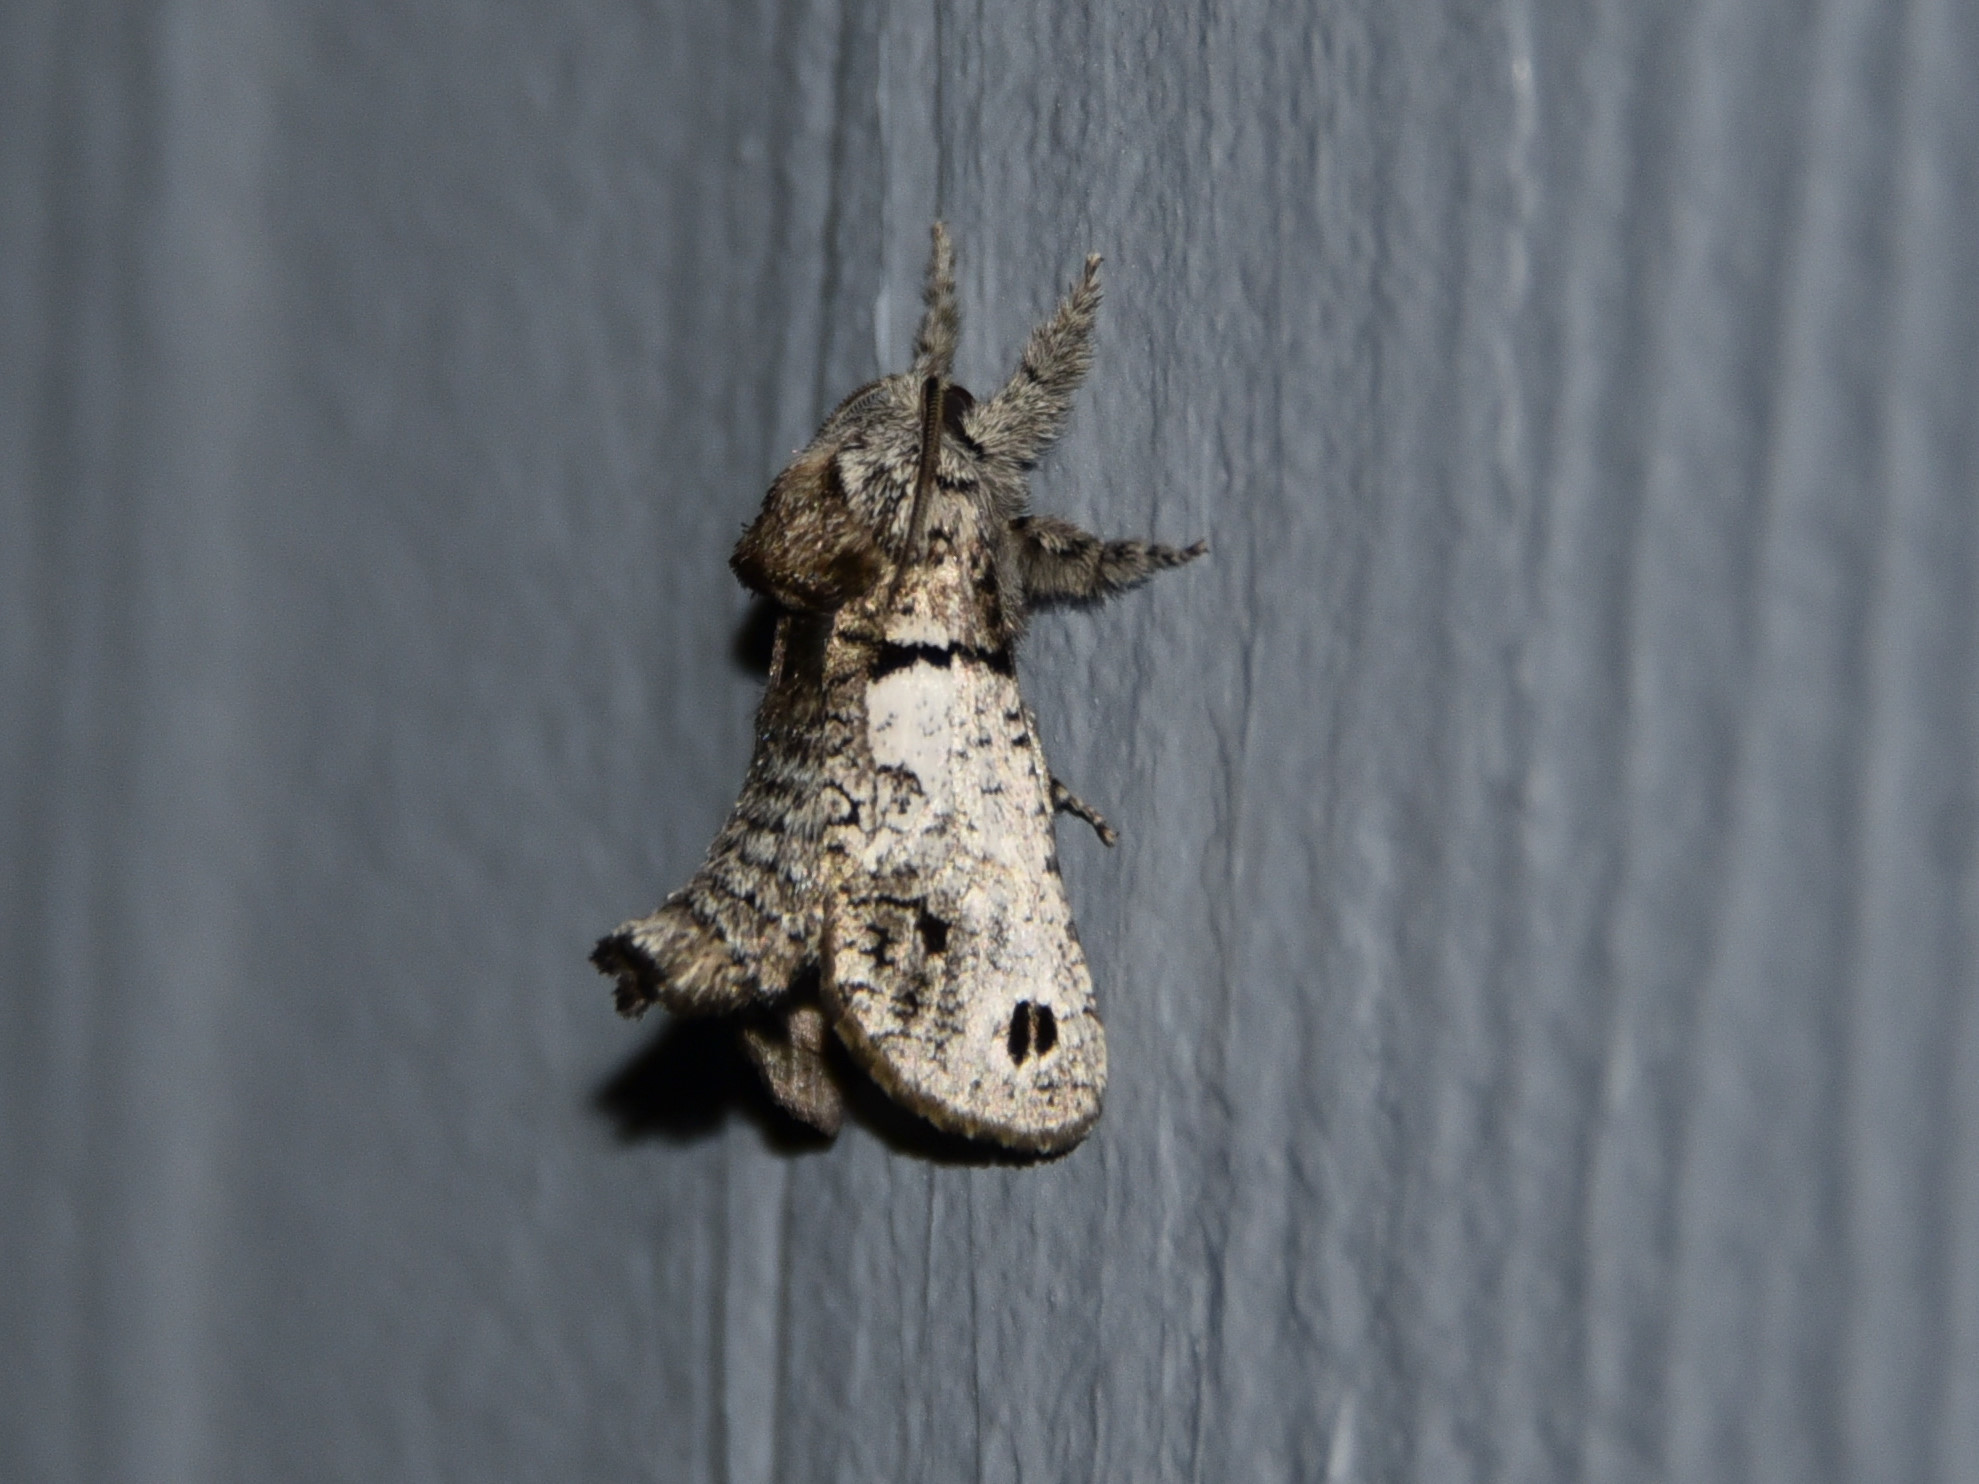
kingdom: Animalia
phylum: Arthropoda
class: Insecta
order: Lepidoptera
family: Cossidae
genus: Inguromorpha
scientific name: Inguromorpha
